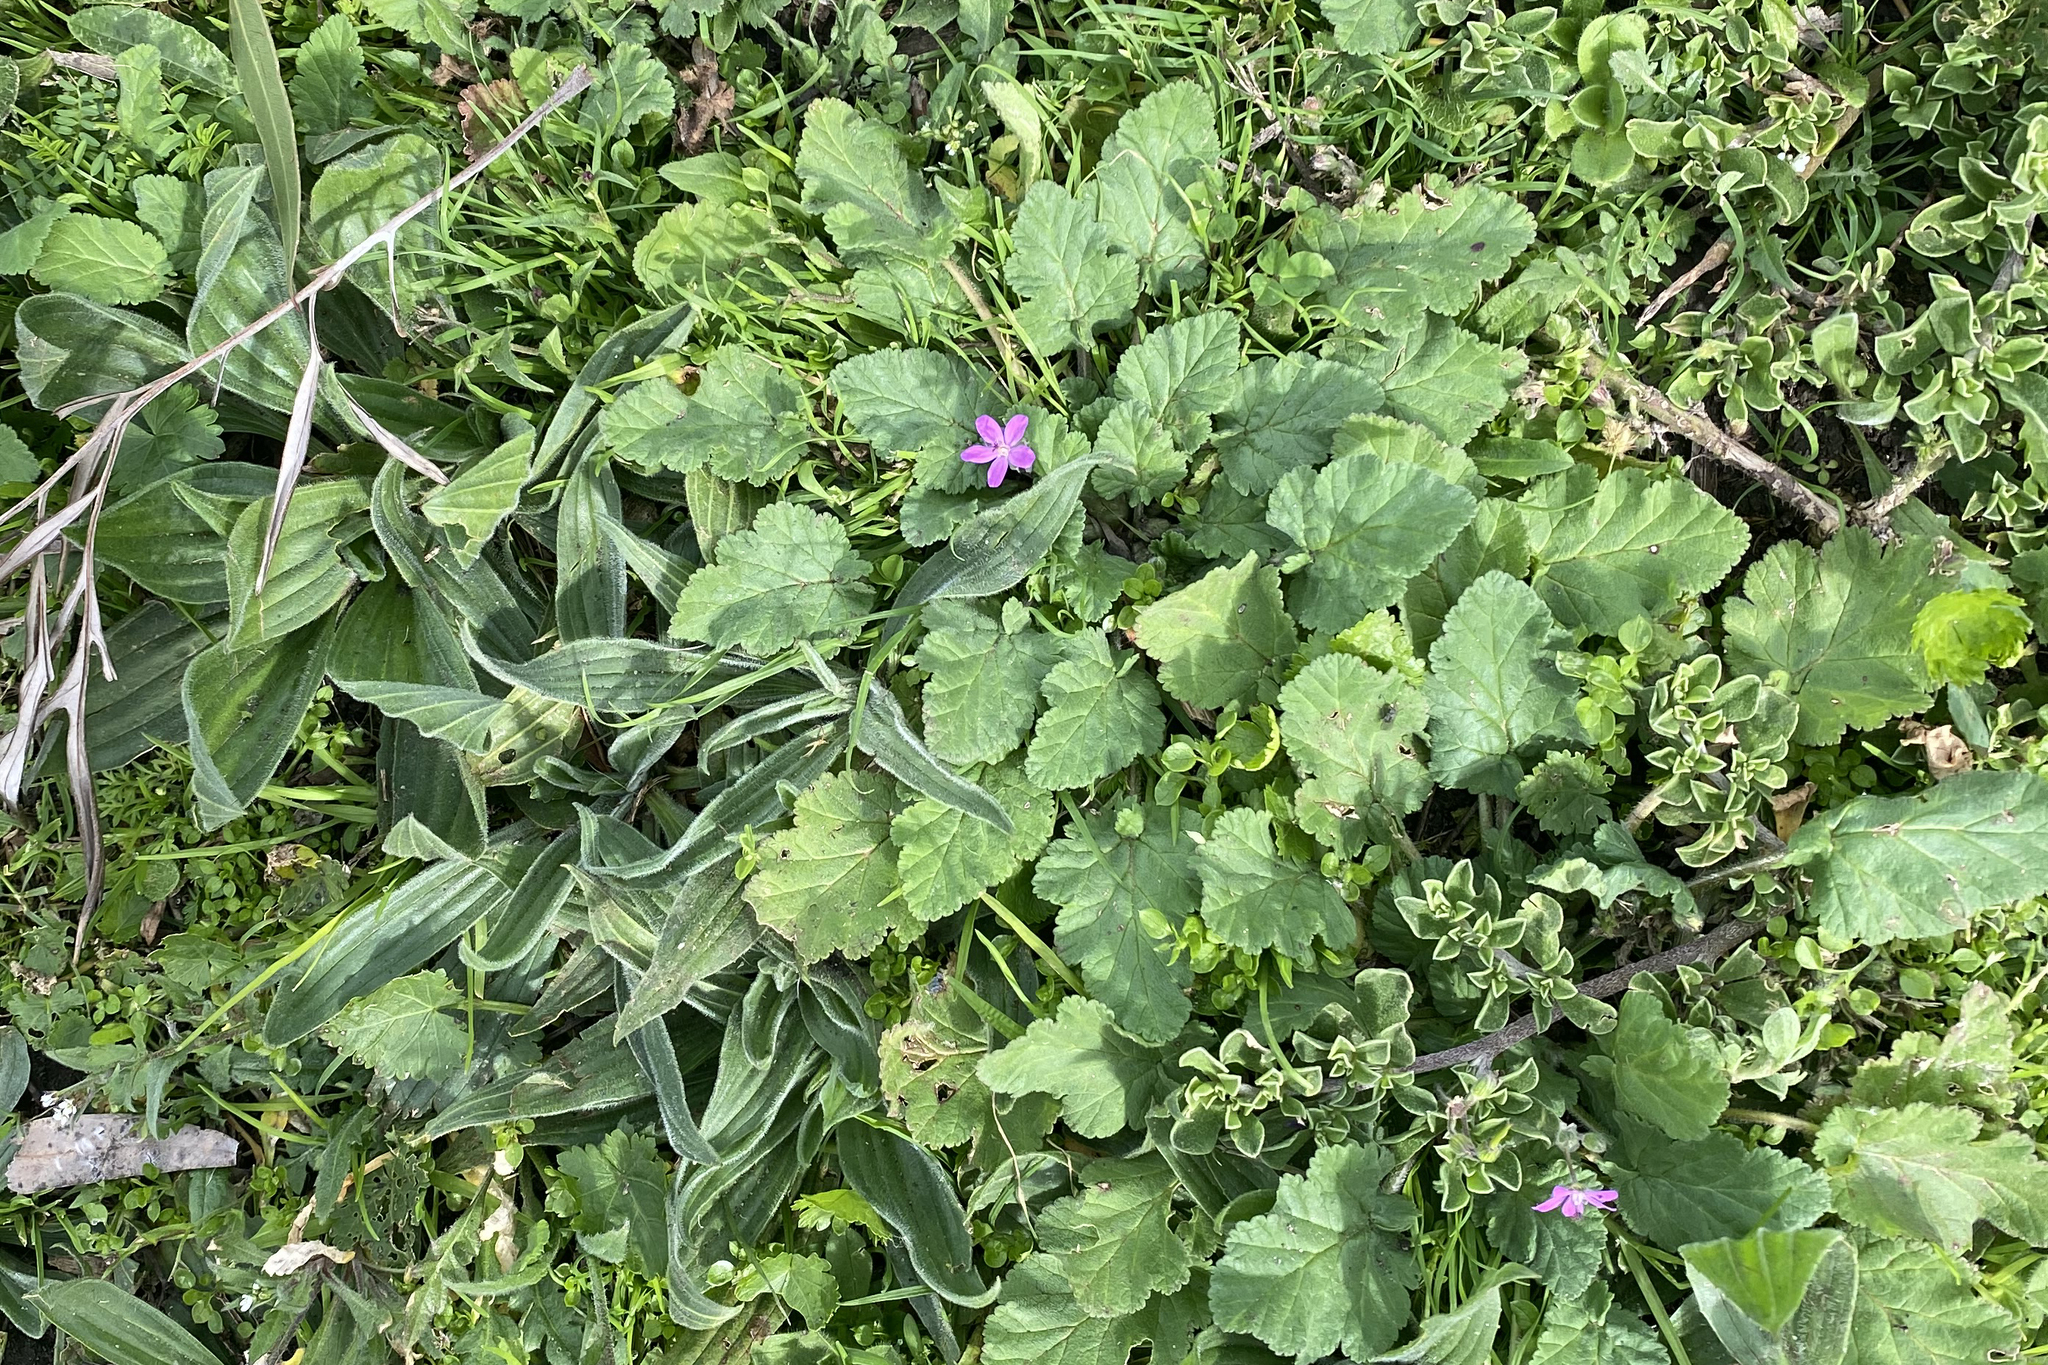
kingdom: Plantae
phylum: Tracheophyta
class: Magnoliopsida
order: Geraniales
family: Geraniaceae
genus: Erodium
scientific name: Erodium malacoides
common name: Soft stork's-bill
